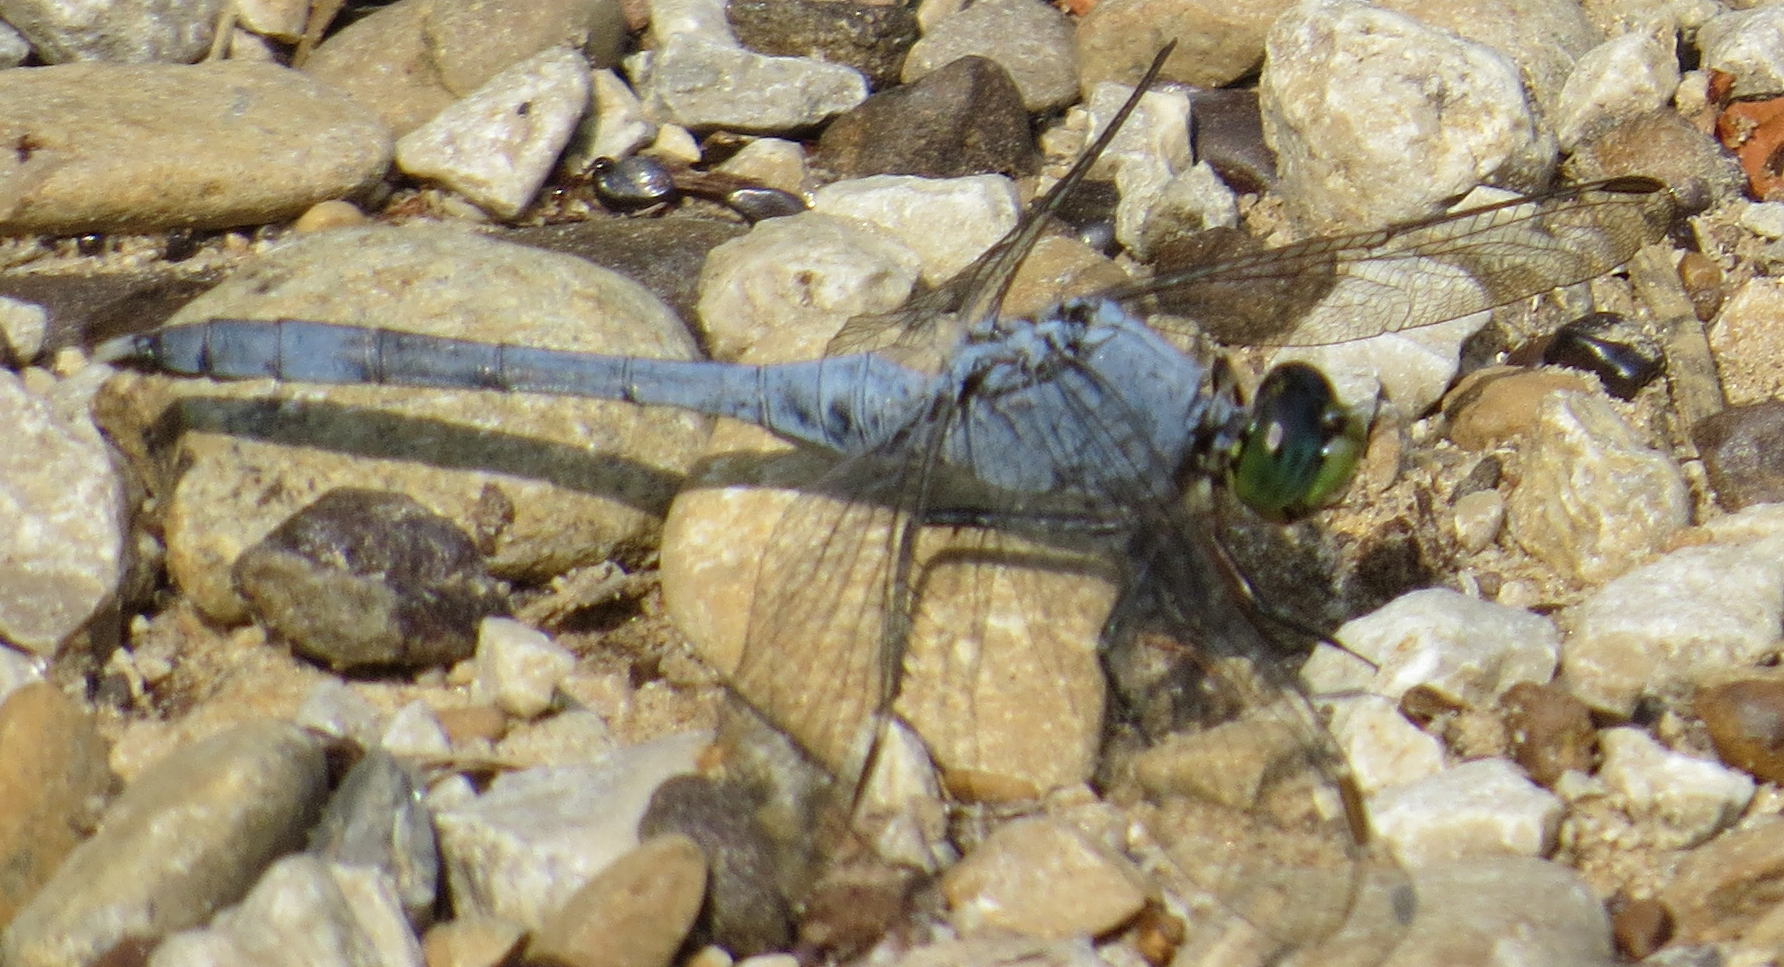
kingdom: Animalia
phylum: Arthropoda
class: Insecta
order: Odonata
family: Libellulidae
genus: Erythemis
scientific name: Erythemis simplicicollis
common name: Eastern pondhawk
